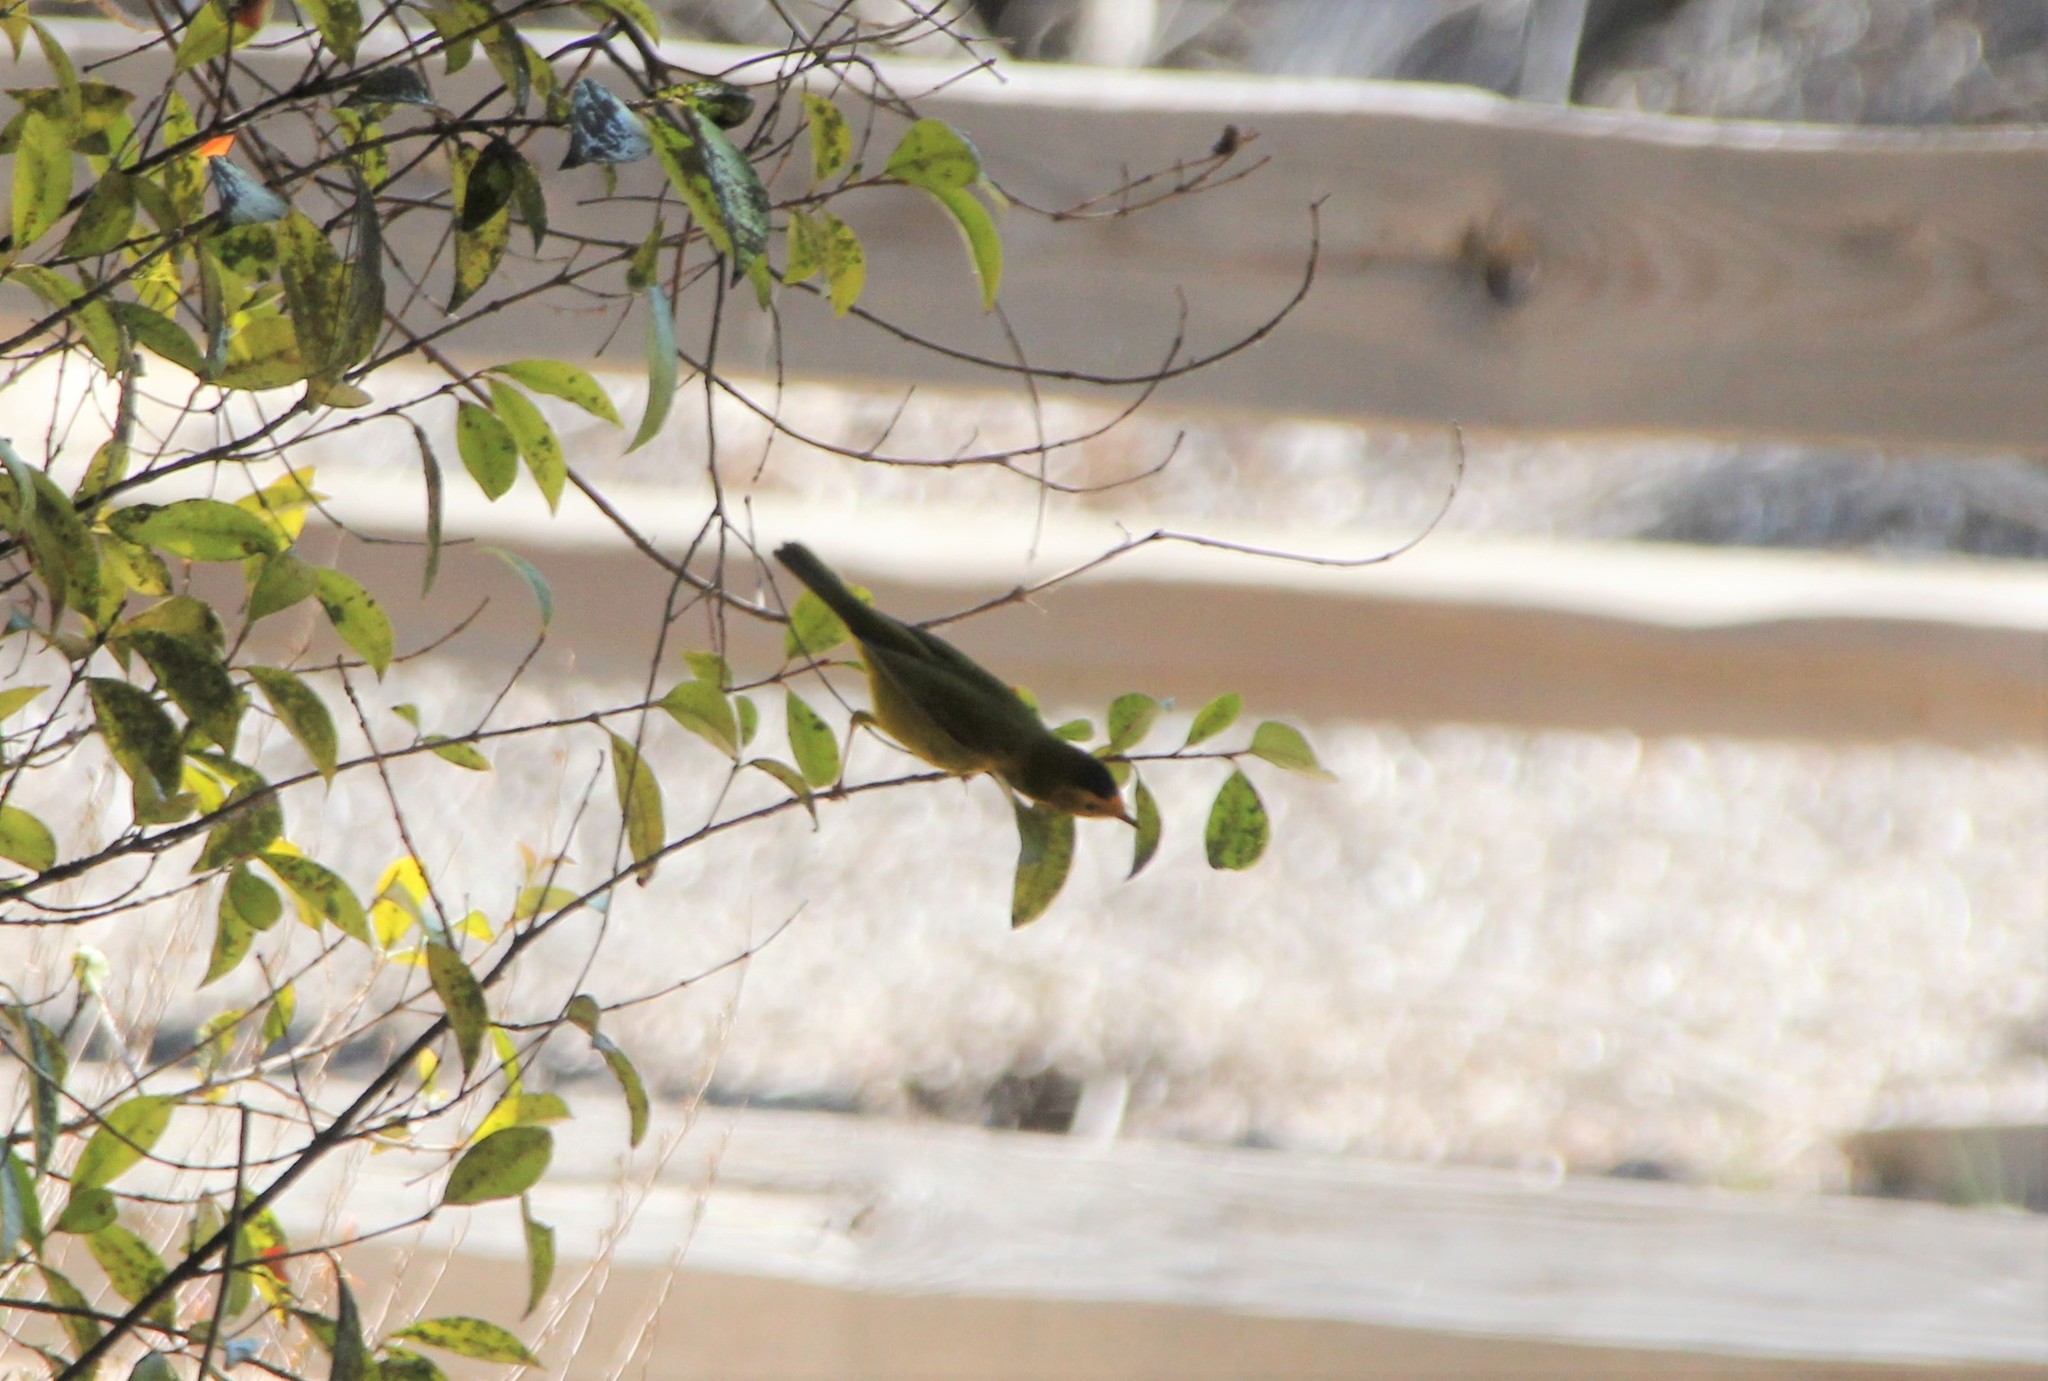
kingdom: Animalia
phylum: Chordata
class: Aves
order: Passeriformes
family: Parulidae
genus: Cardellina
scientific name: Cardellina pusilla
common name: Wilson's warbler
